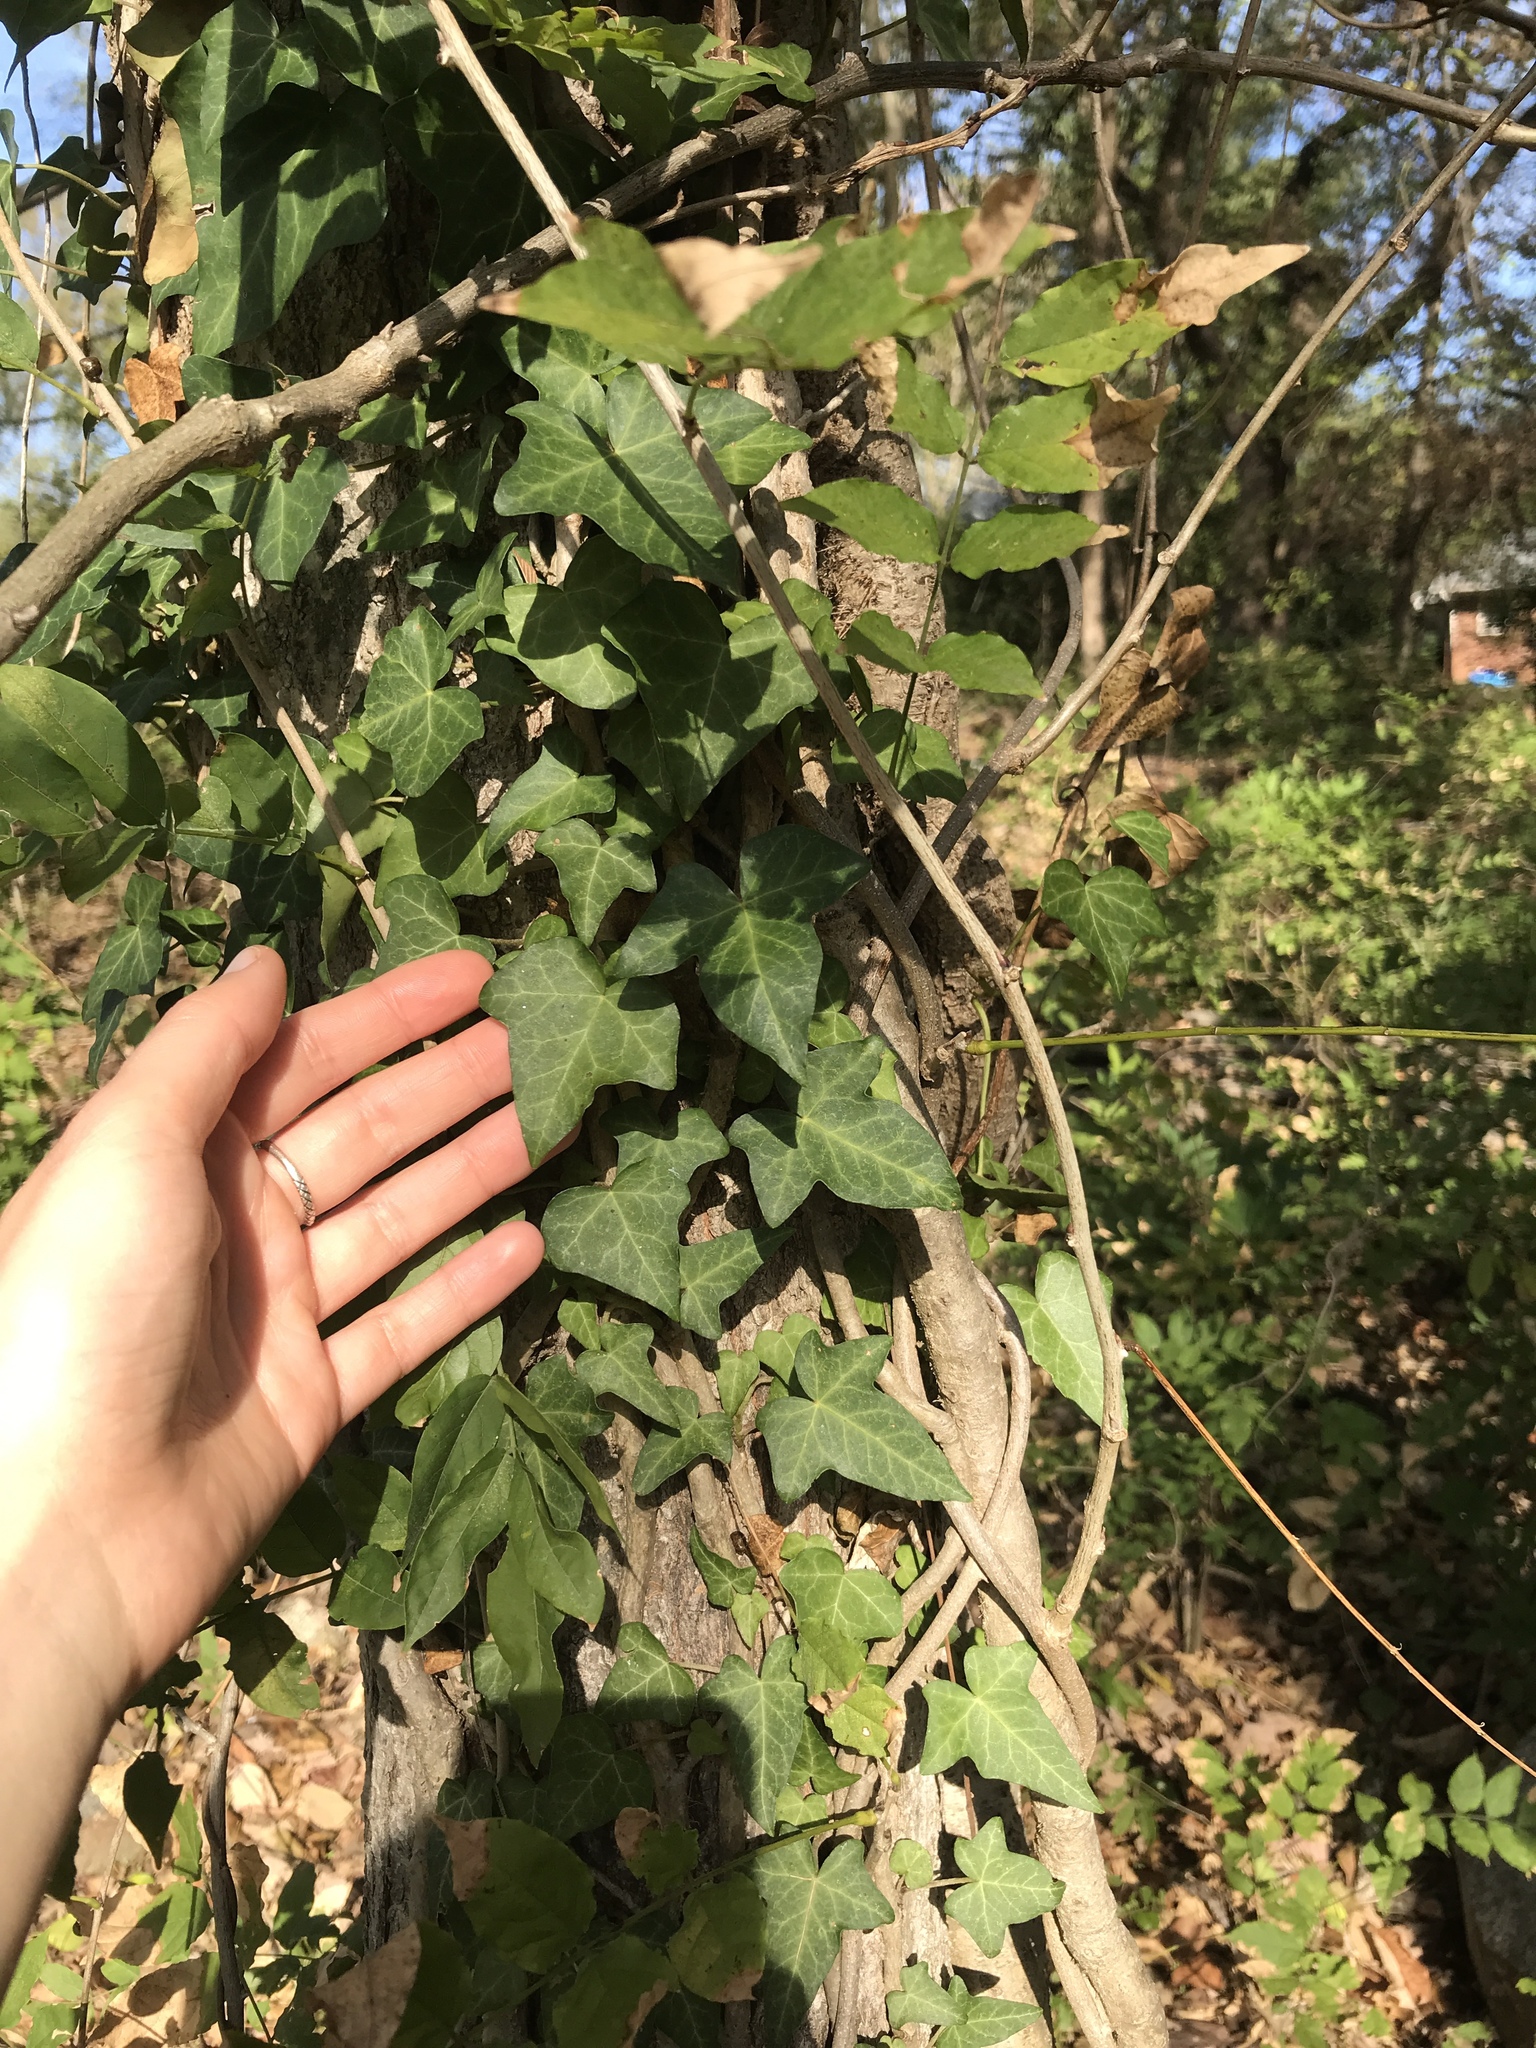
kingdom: Plantae
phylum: Tracheophyta
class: Magnoliopsida
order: Apiales
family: Araliaceae
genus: Hedera
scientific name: Hedera helix
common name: Ivy
